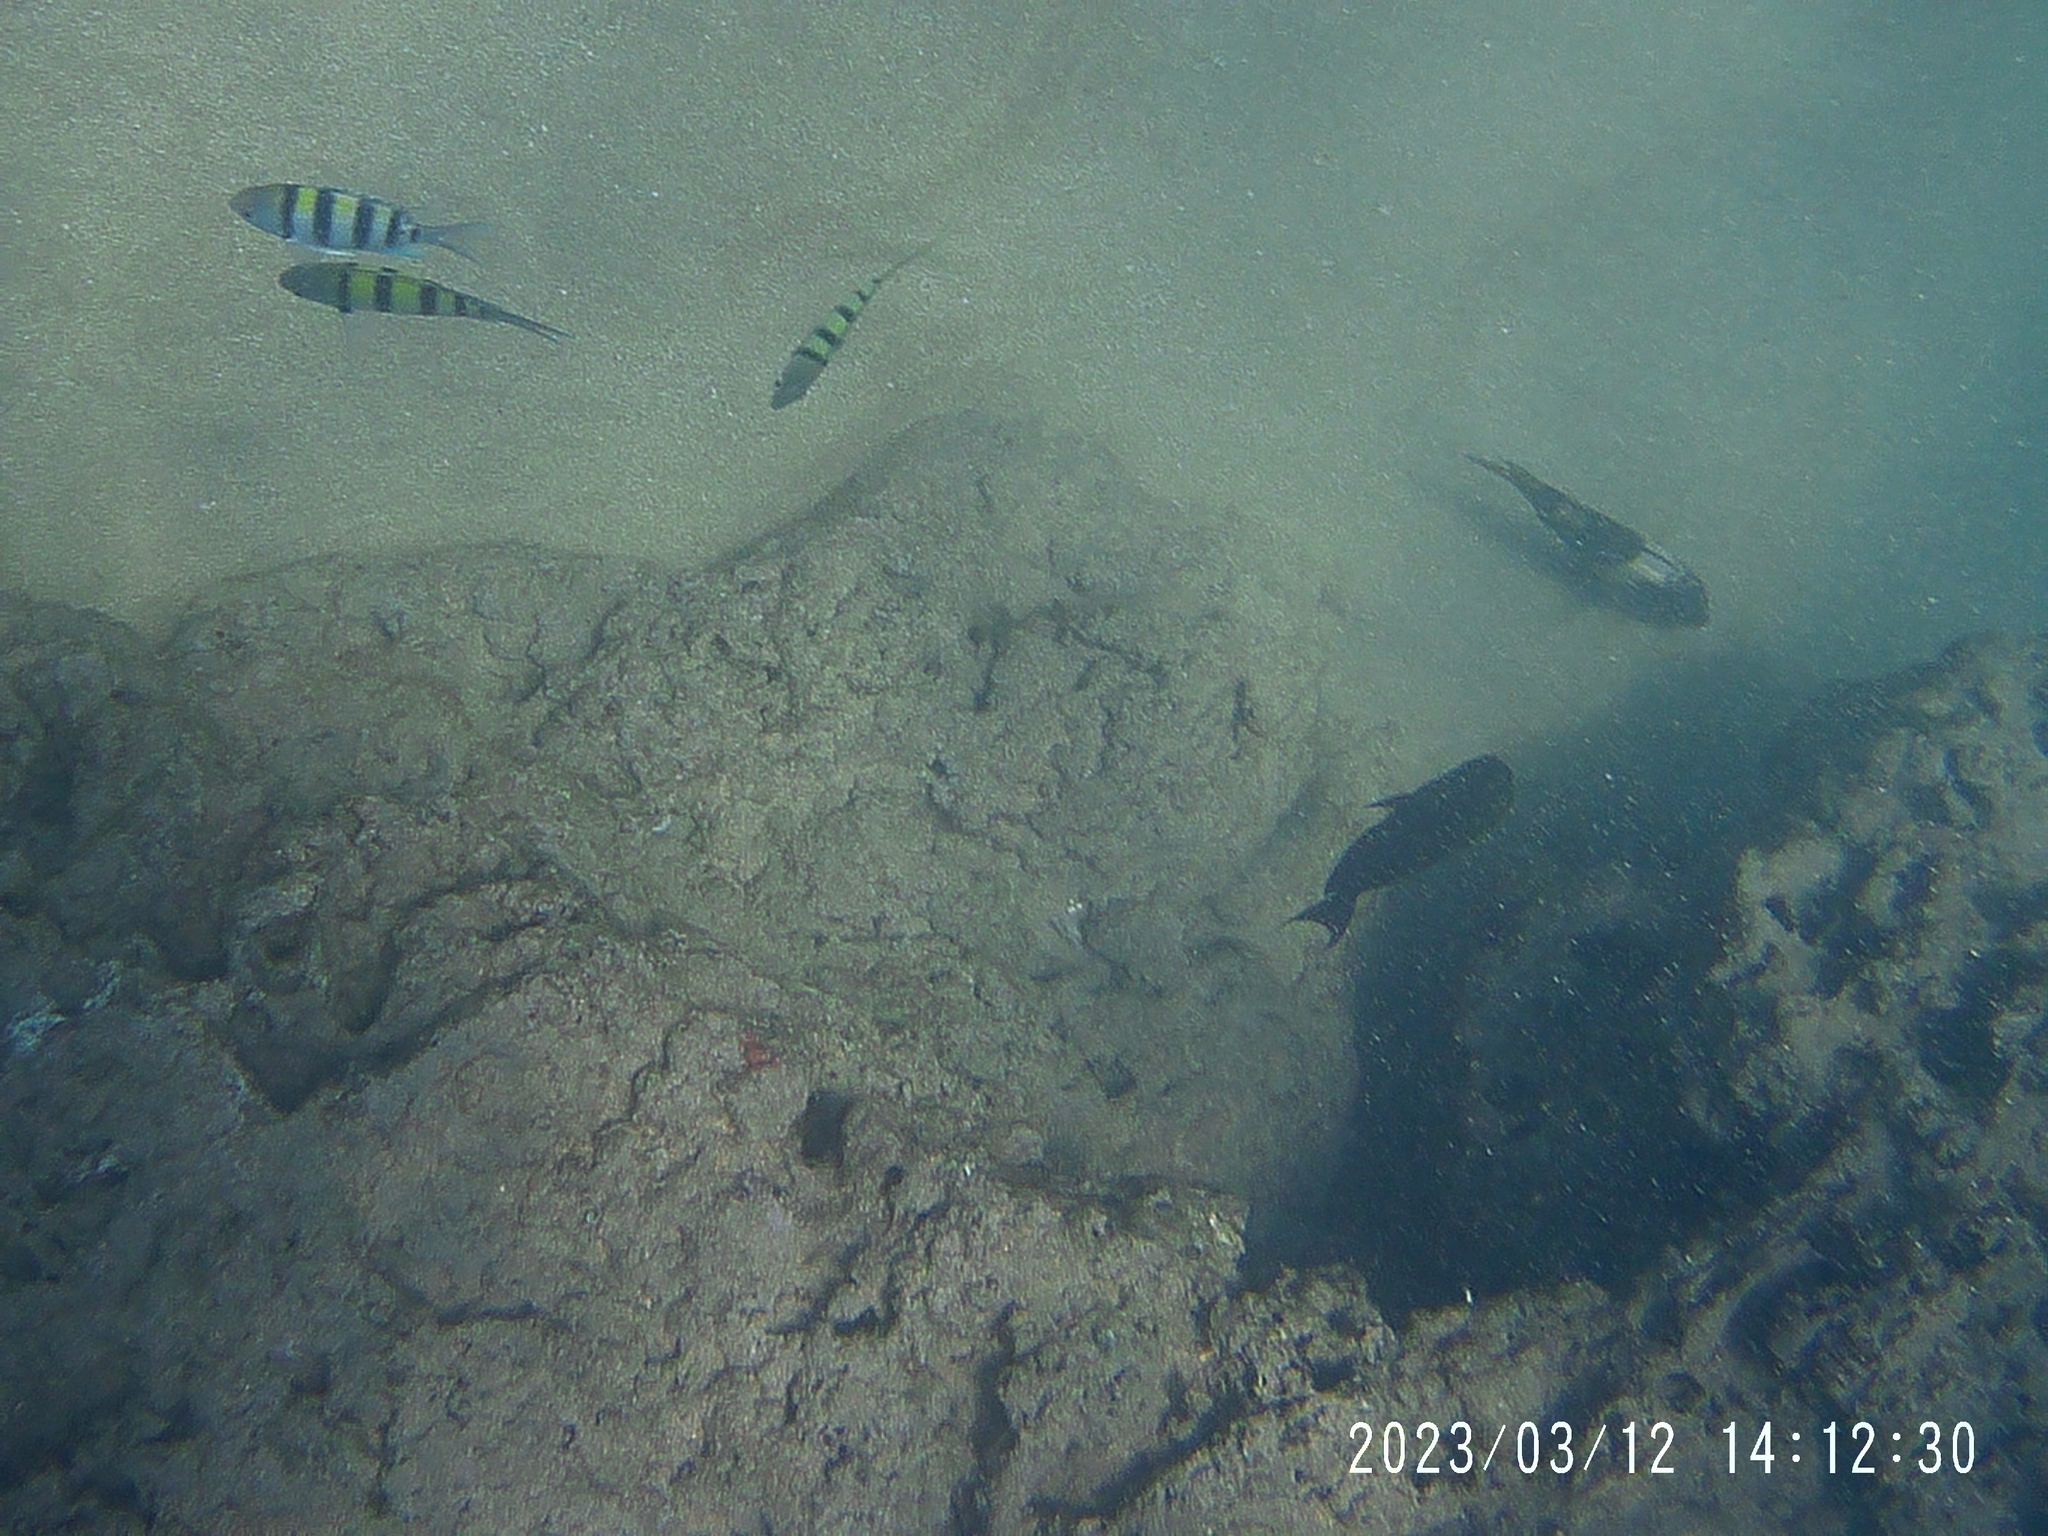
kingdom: Animalia
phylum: Chordata
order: Perciformes
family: Pomacentridae
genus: Abudefduf
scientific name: Abudefduf vaigiensis
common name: Indo-pacific sergeant
